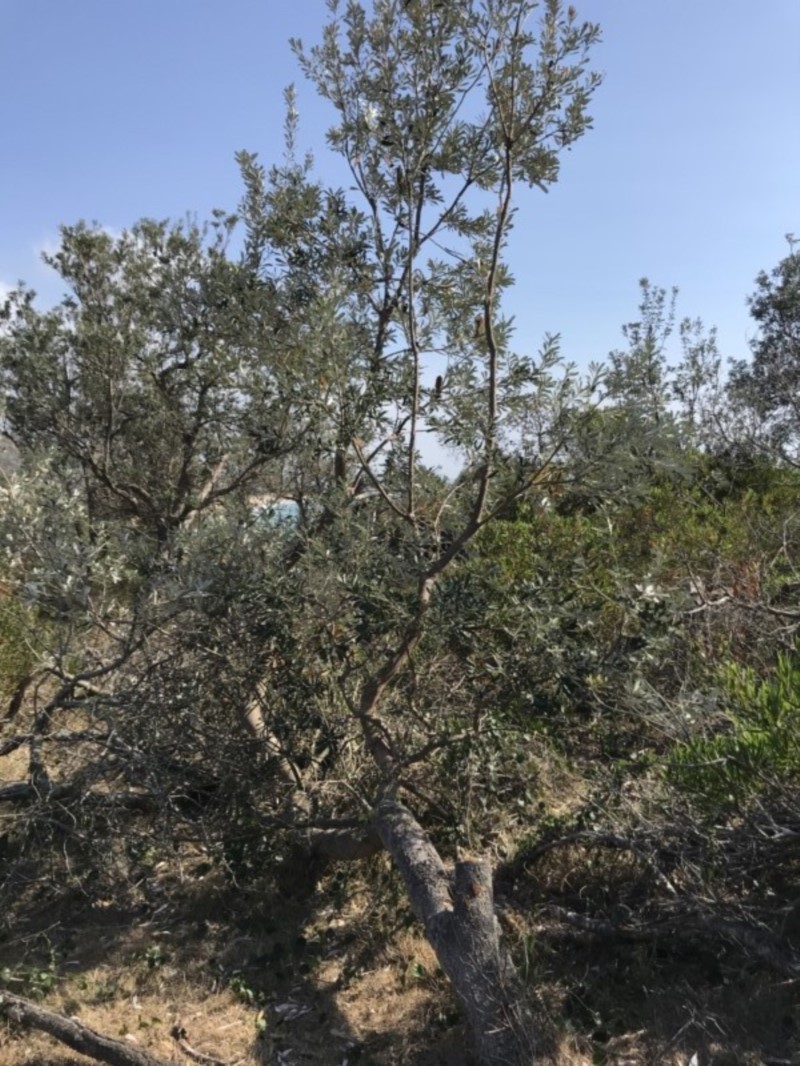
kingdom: Plantae
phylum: Tracheophyta
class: Magnoliopsida
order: Proteales
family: Proteaceae
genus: Banksia
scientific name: Banksia integrifolia
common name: White-honeysuckle
